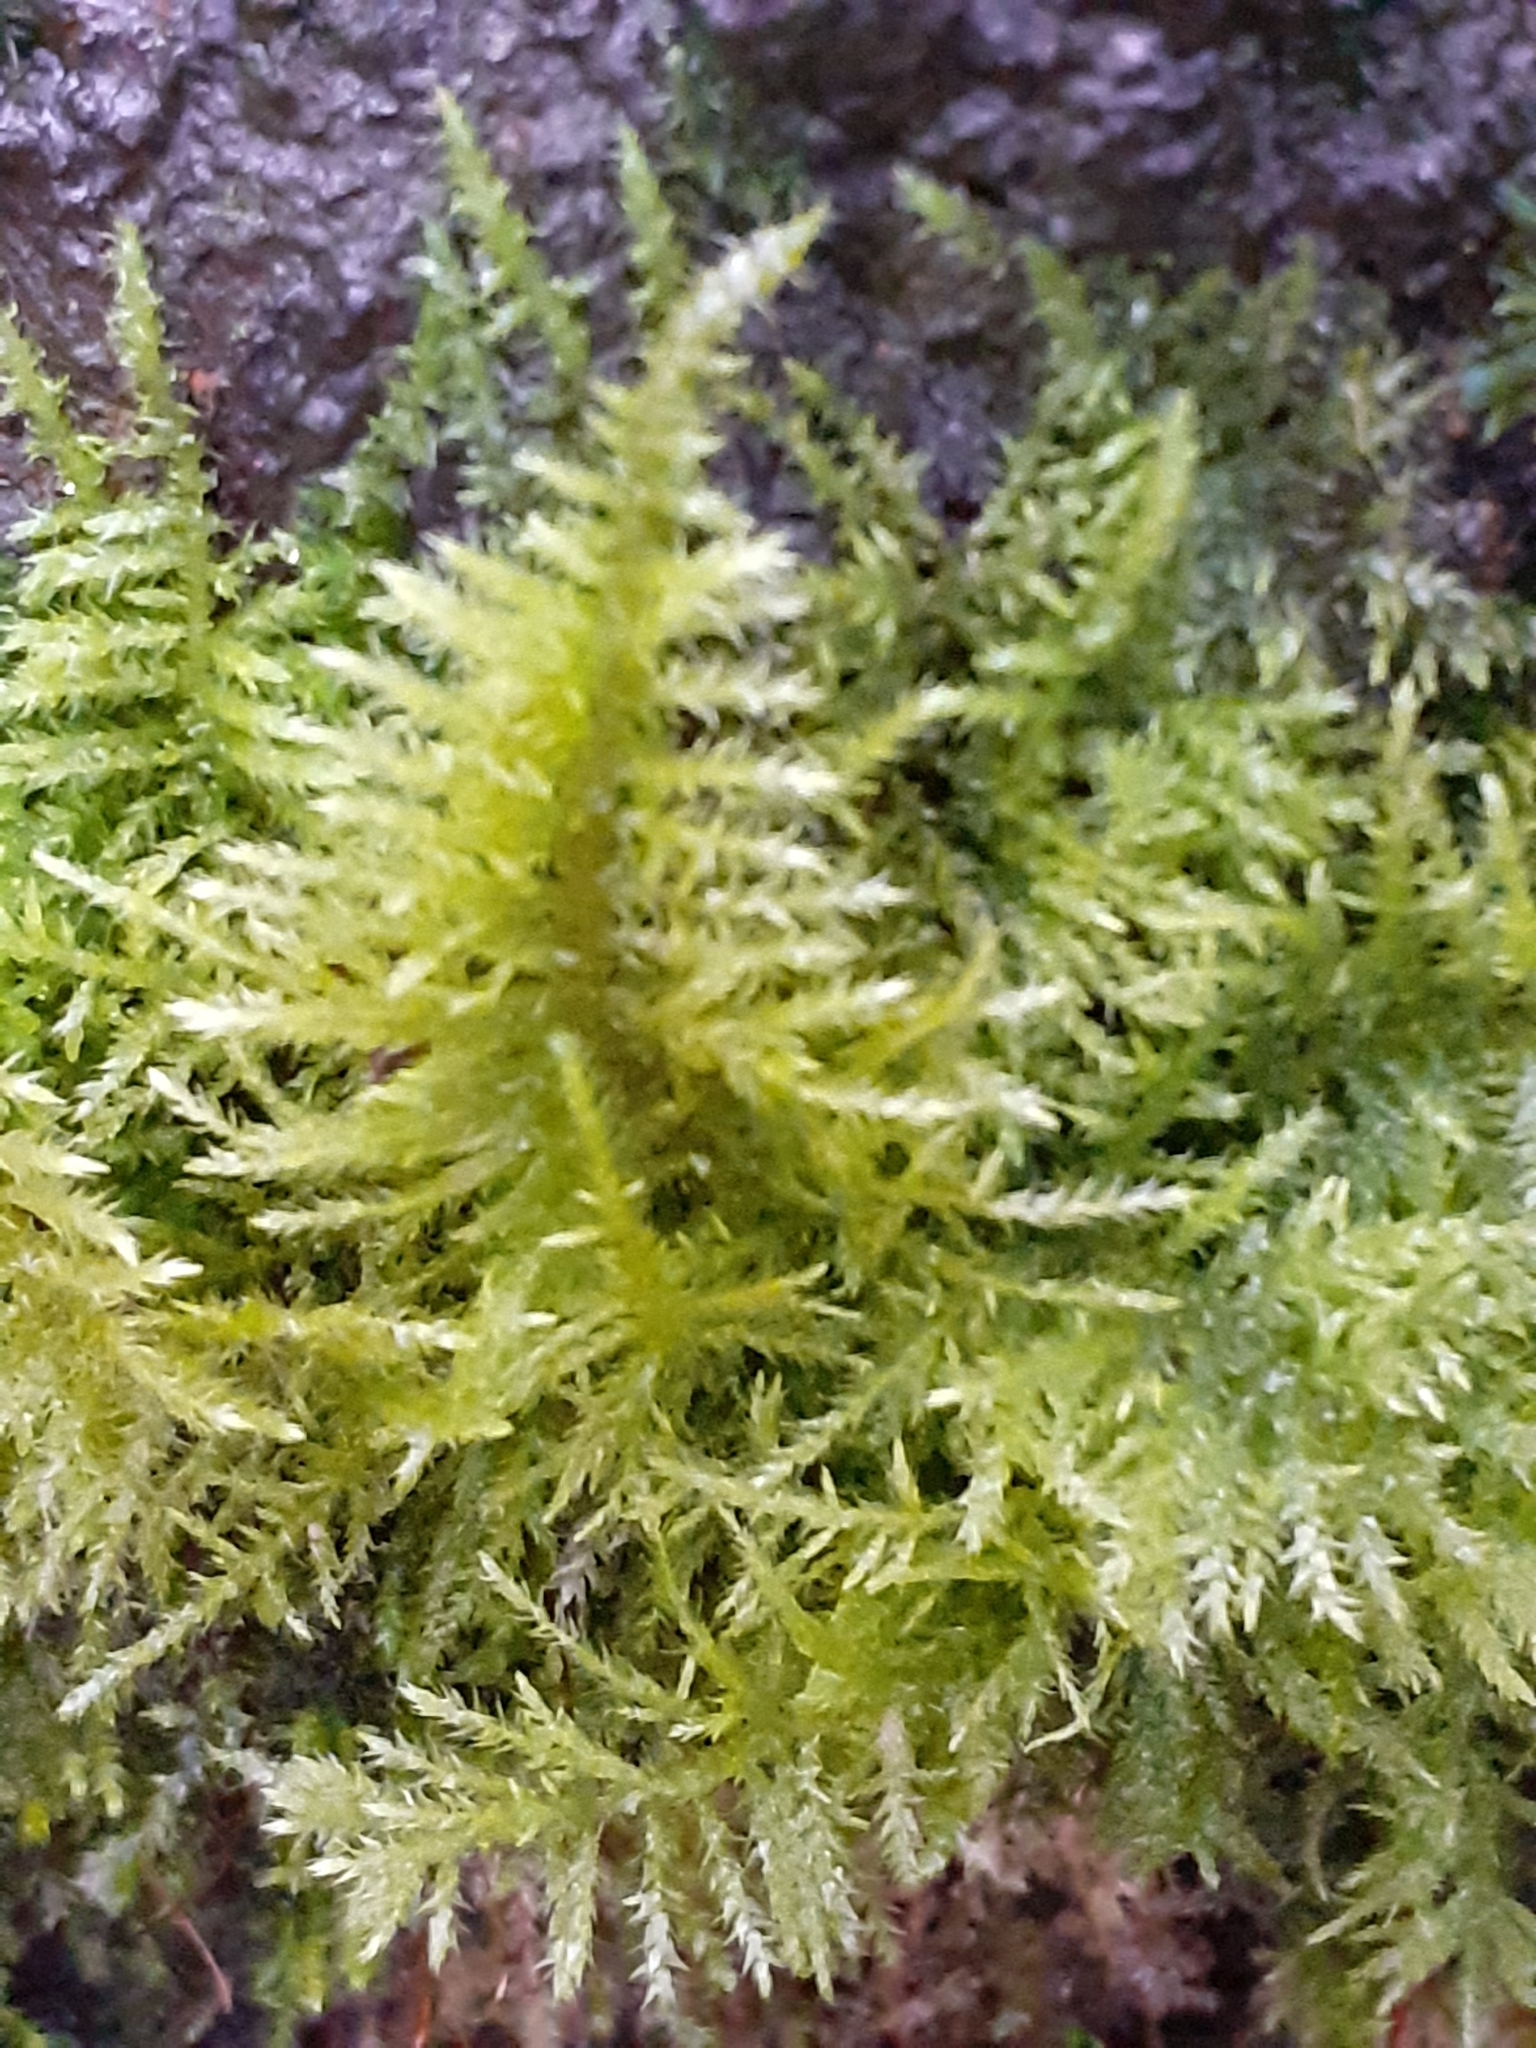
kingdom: Plantae
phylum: Bryophyta
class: Bryopsida
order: Hypnales
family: Brachytheciaceae
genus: Kindbergia
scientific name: Kindbergia praelonga
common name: Slender beaked moss
